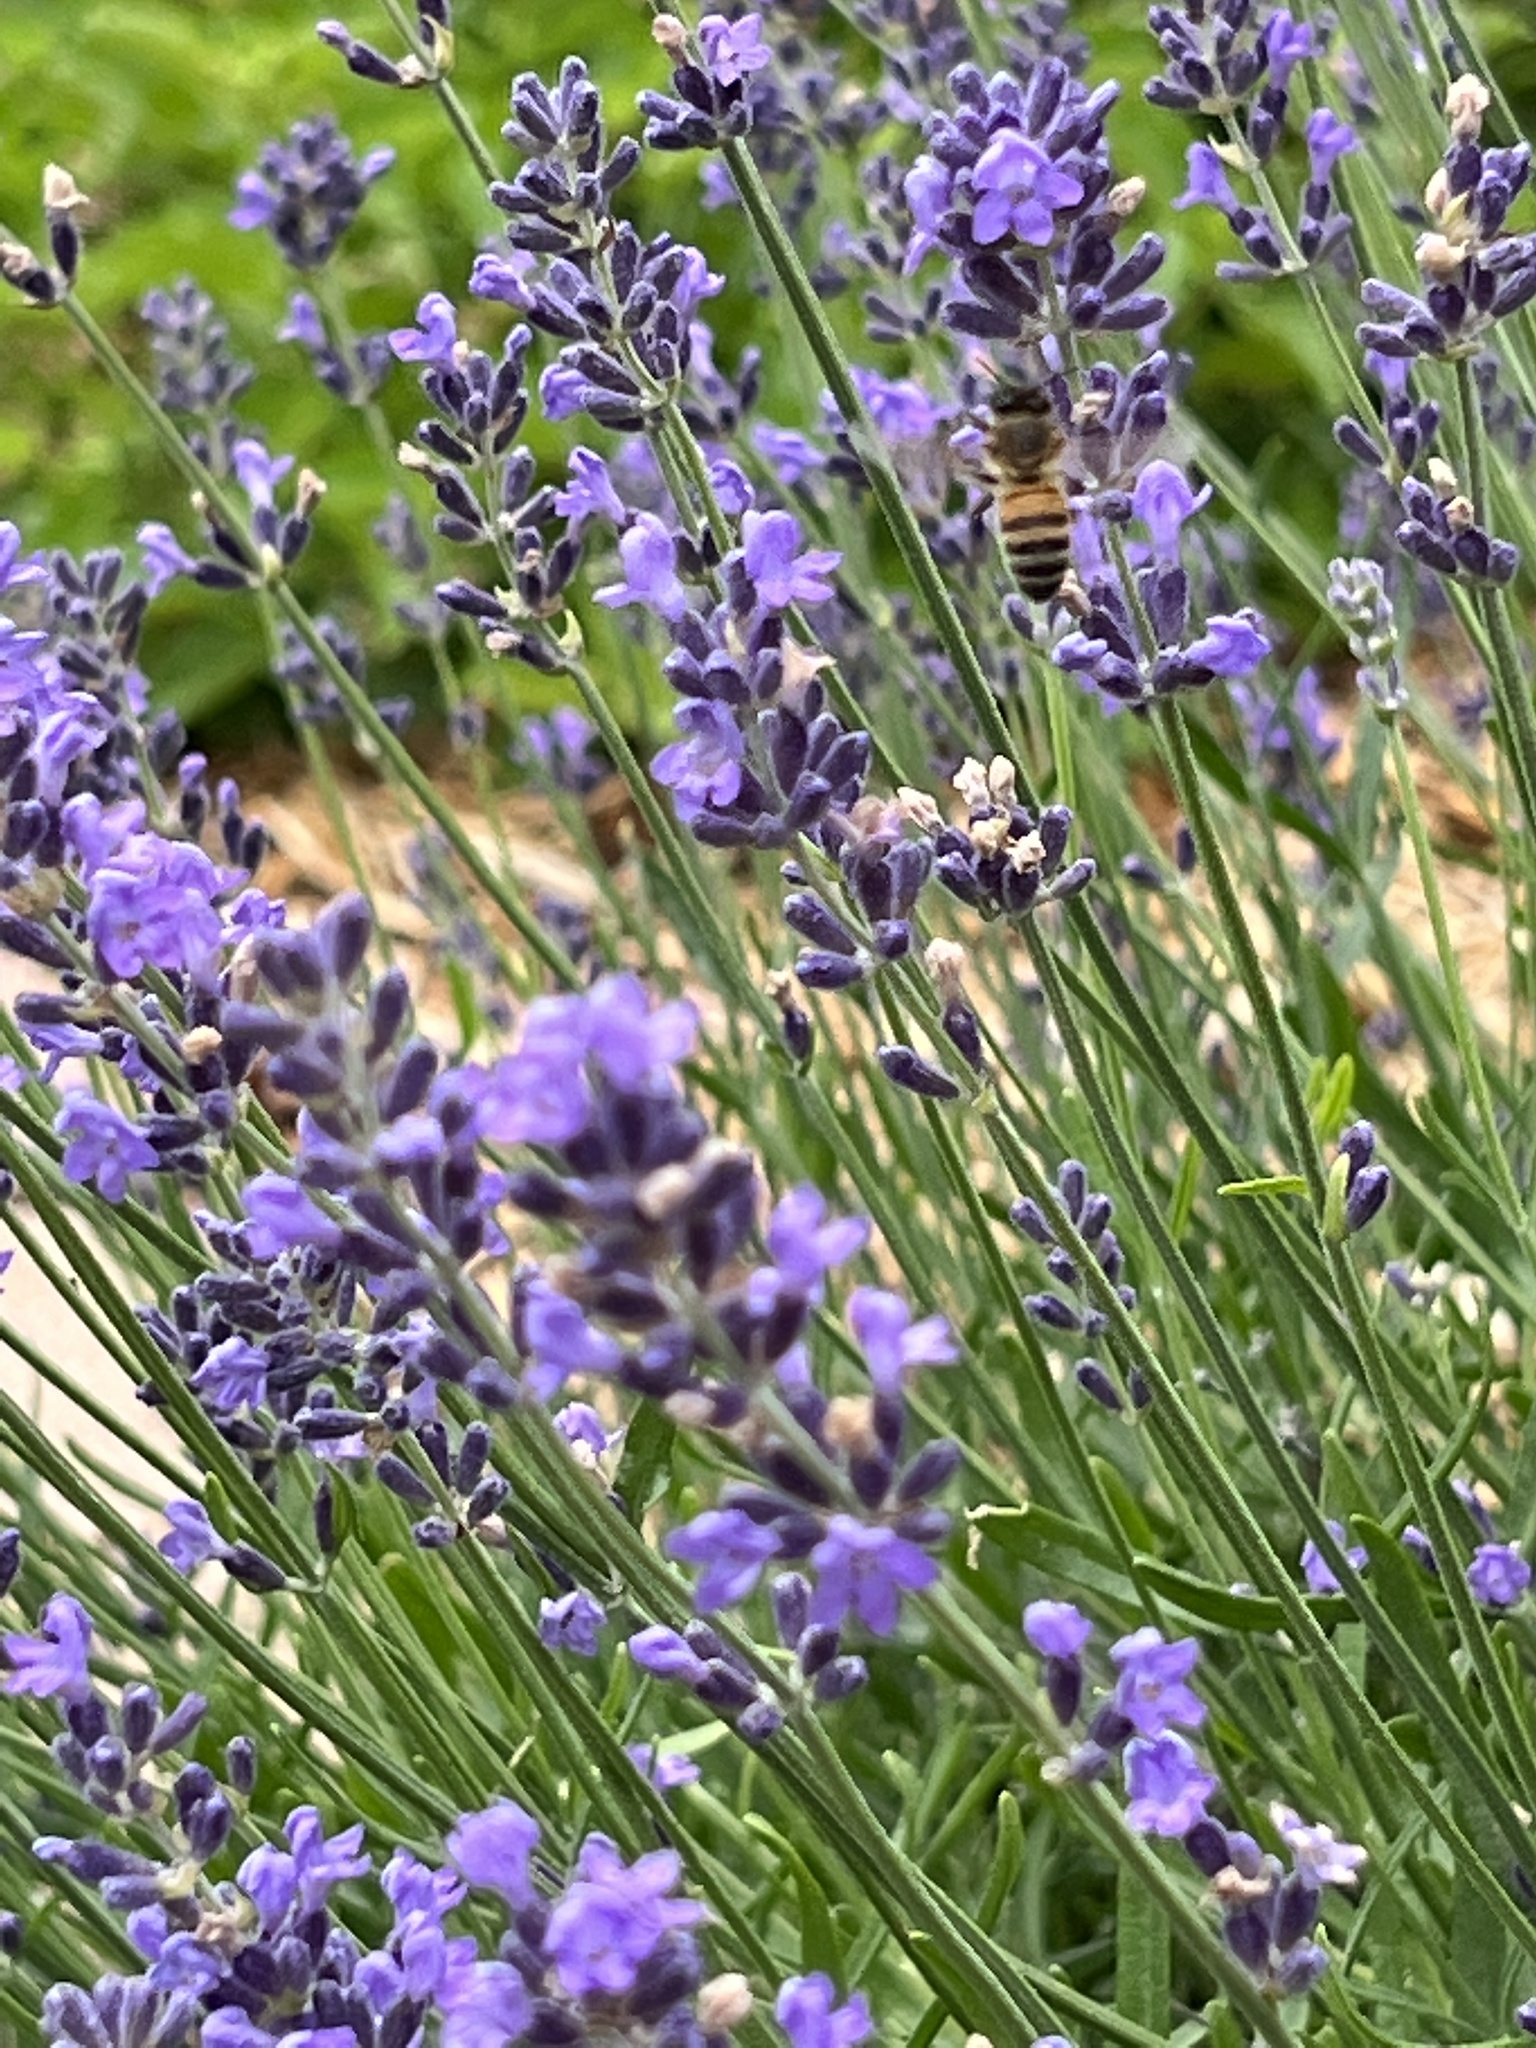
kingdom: Animalia
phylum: Arthropoda
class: Insecta
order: Hymenoptera
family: Apidae
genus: Apis
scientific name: Apis mellifera
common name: Honey bee
